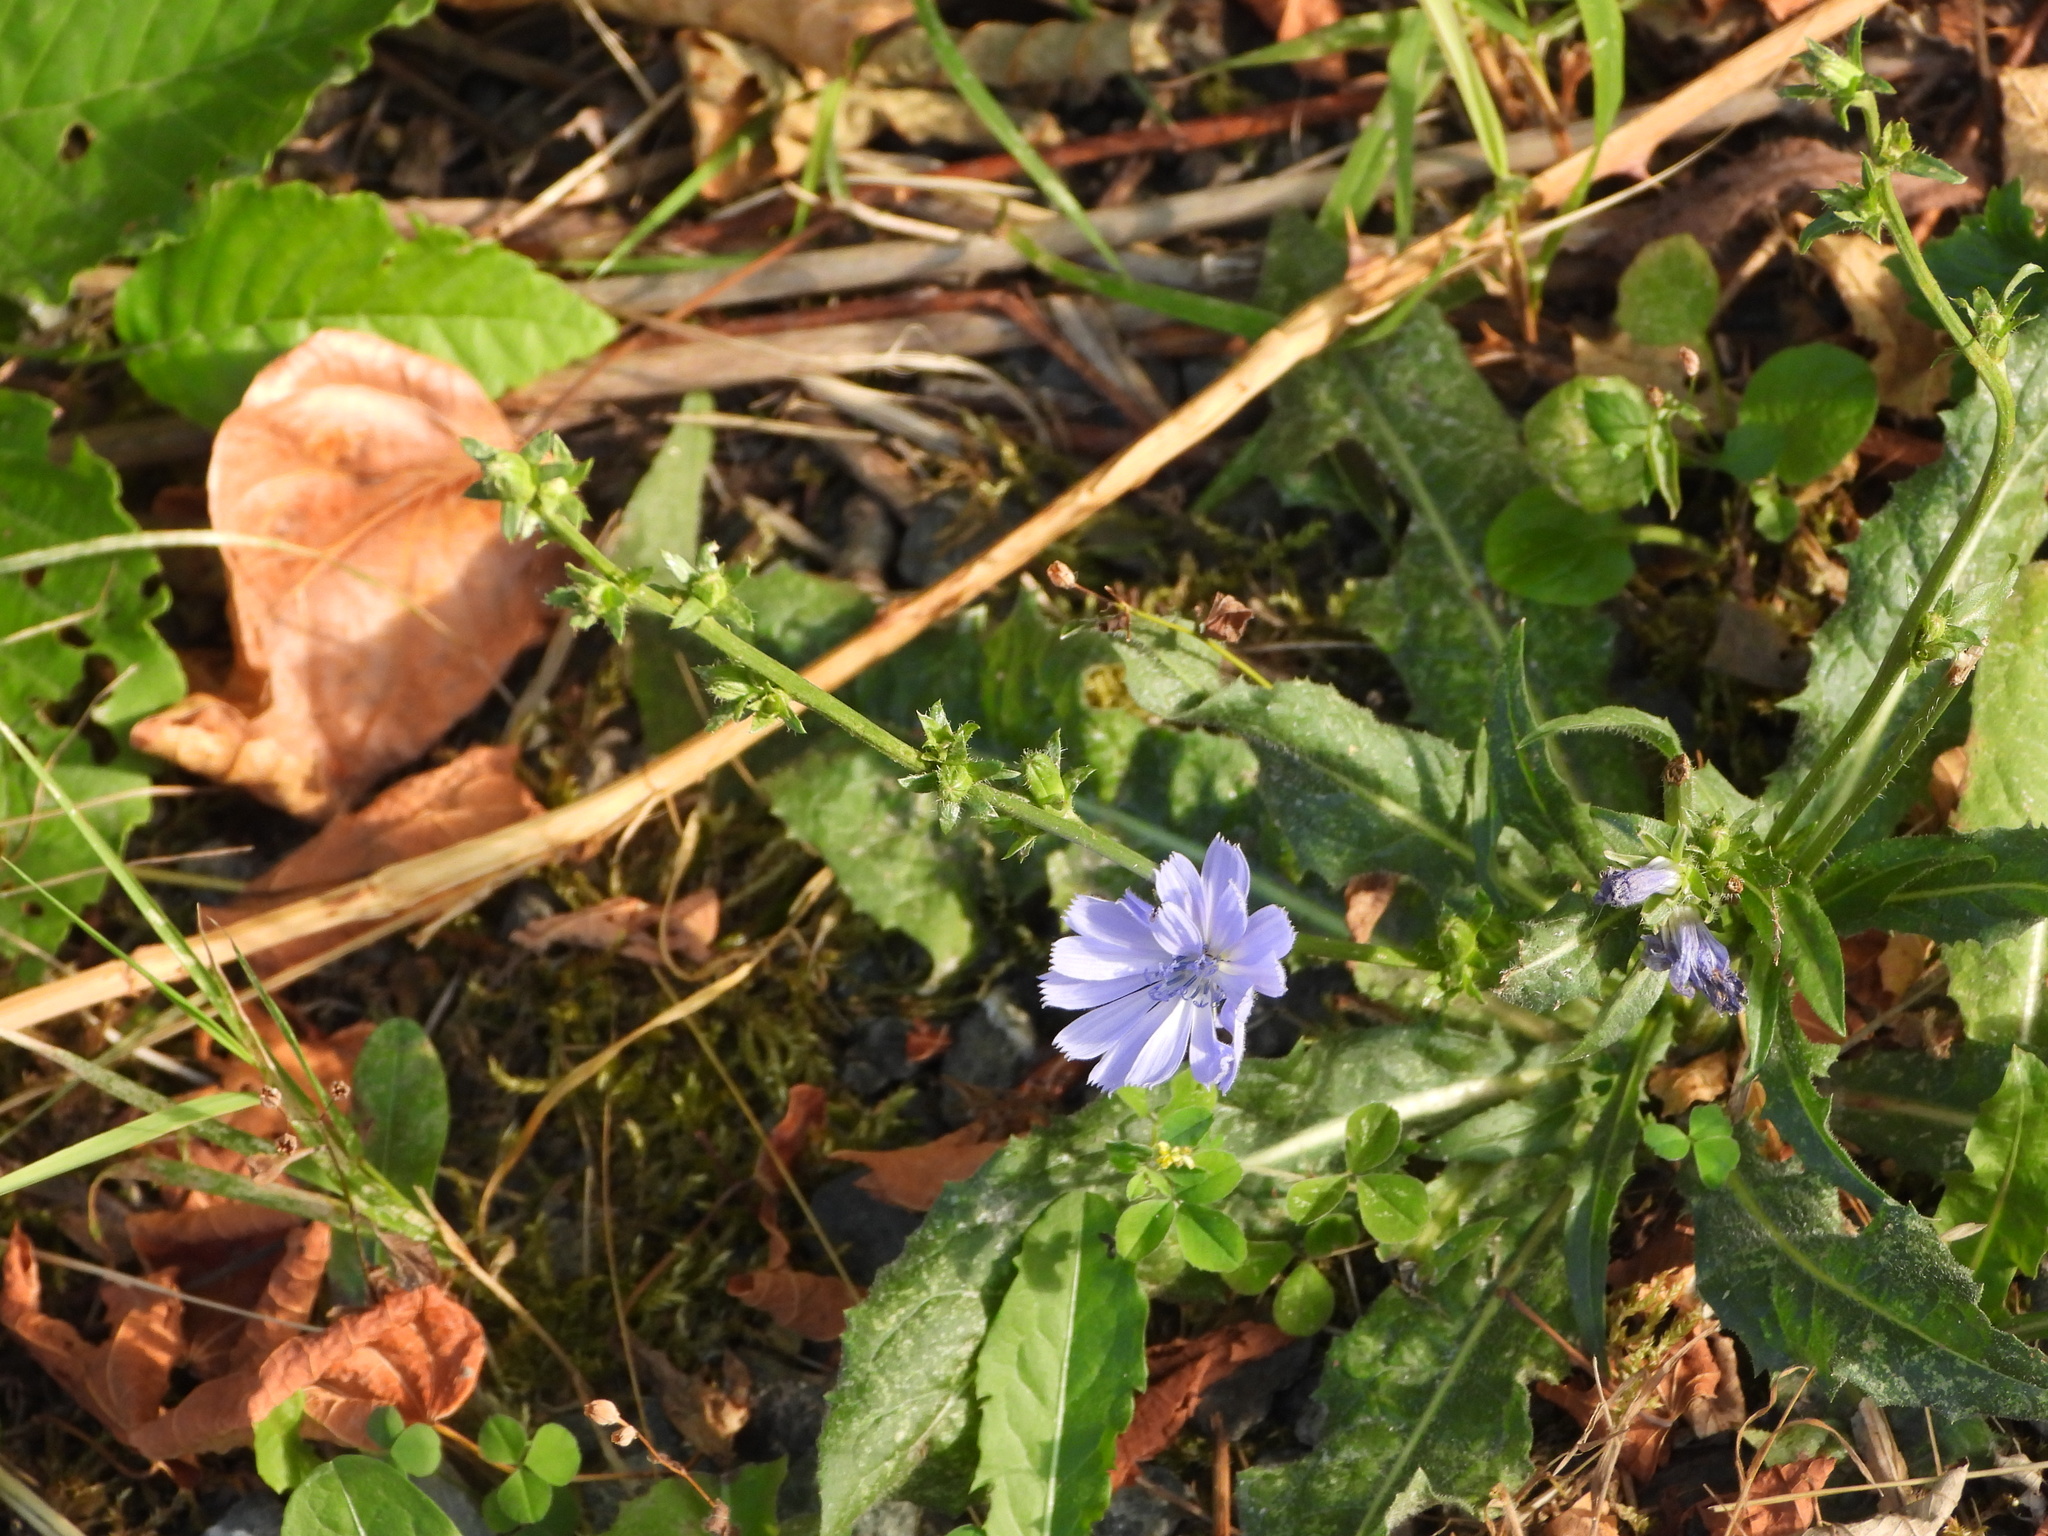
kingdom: Plantae
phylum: Tracheophyta
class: Magnoliopsida
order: Asterales
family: Asteraceae
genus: Cichorium
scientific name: Cichorium intybus
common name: Chicory
